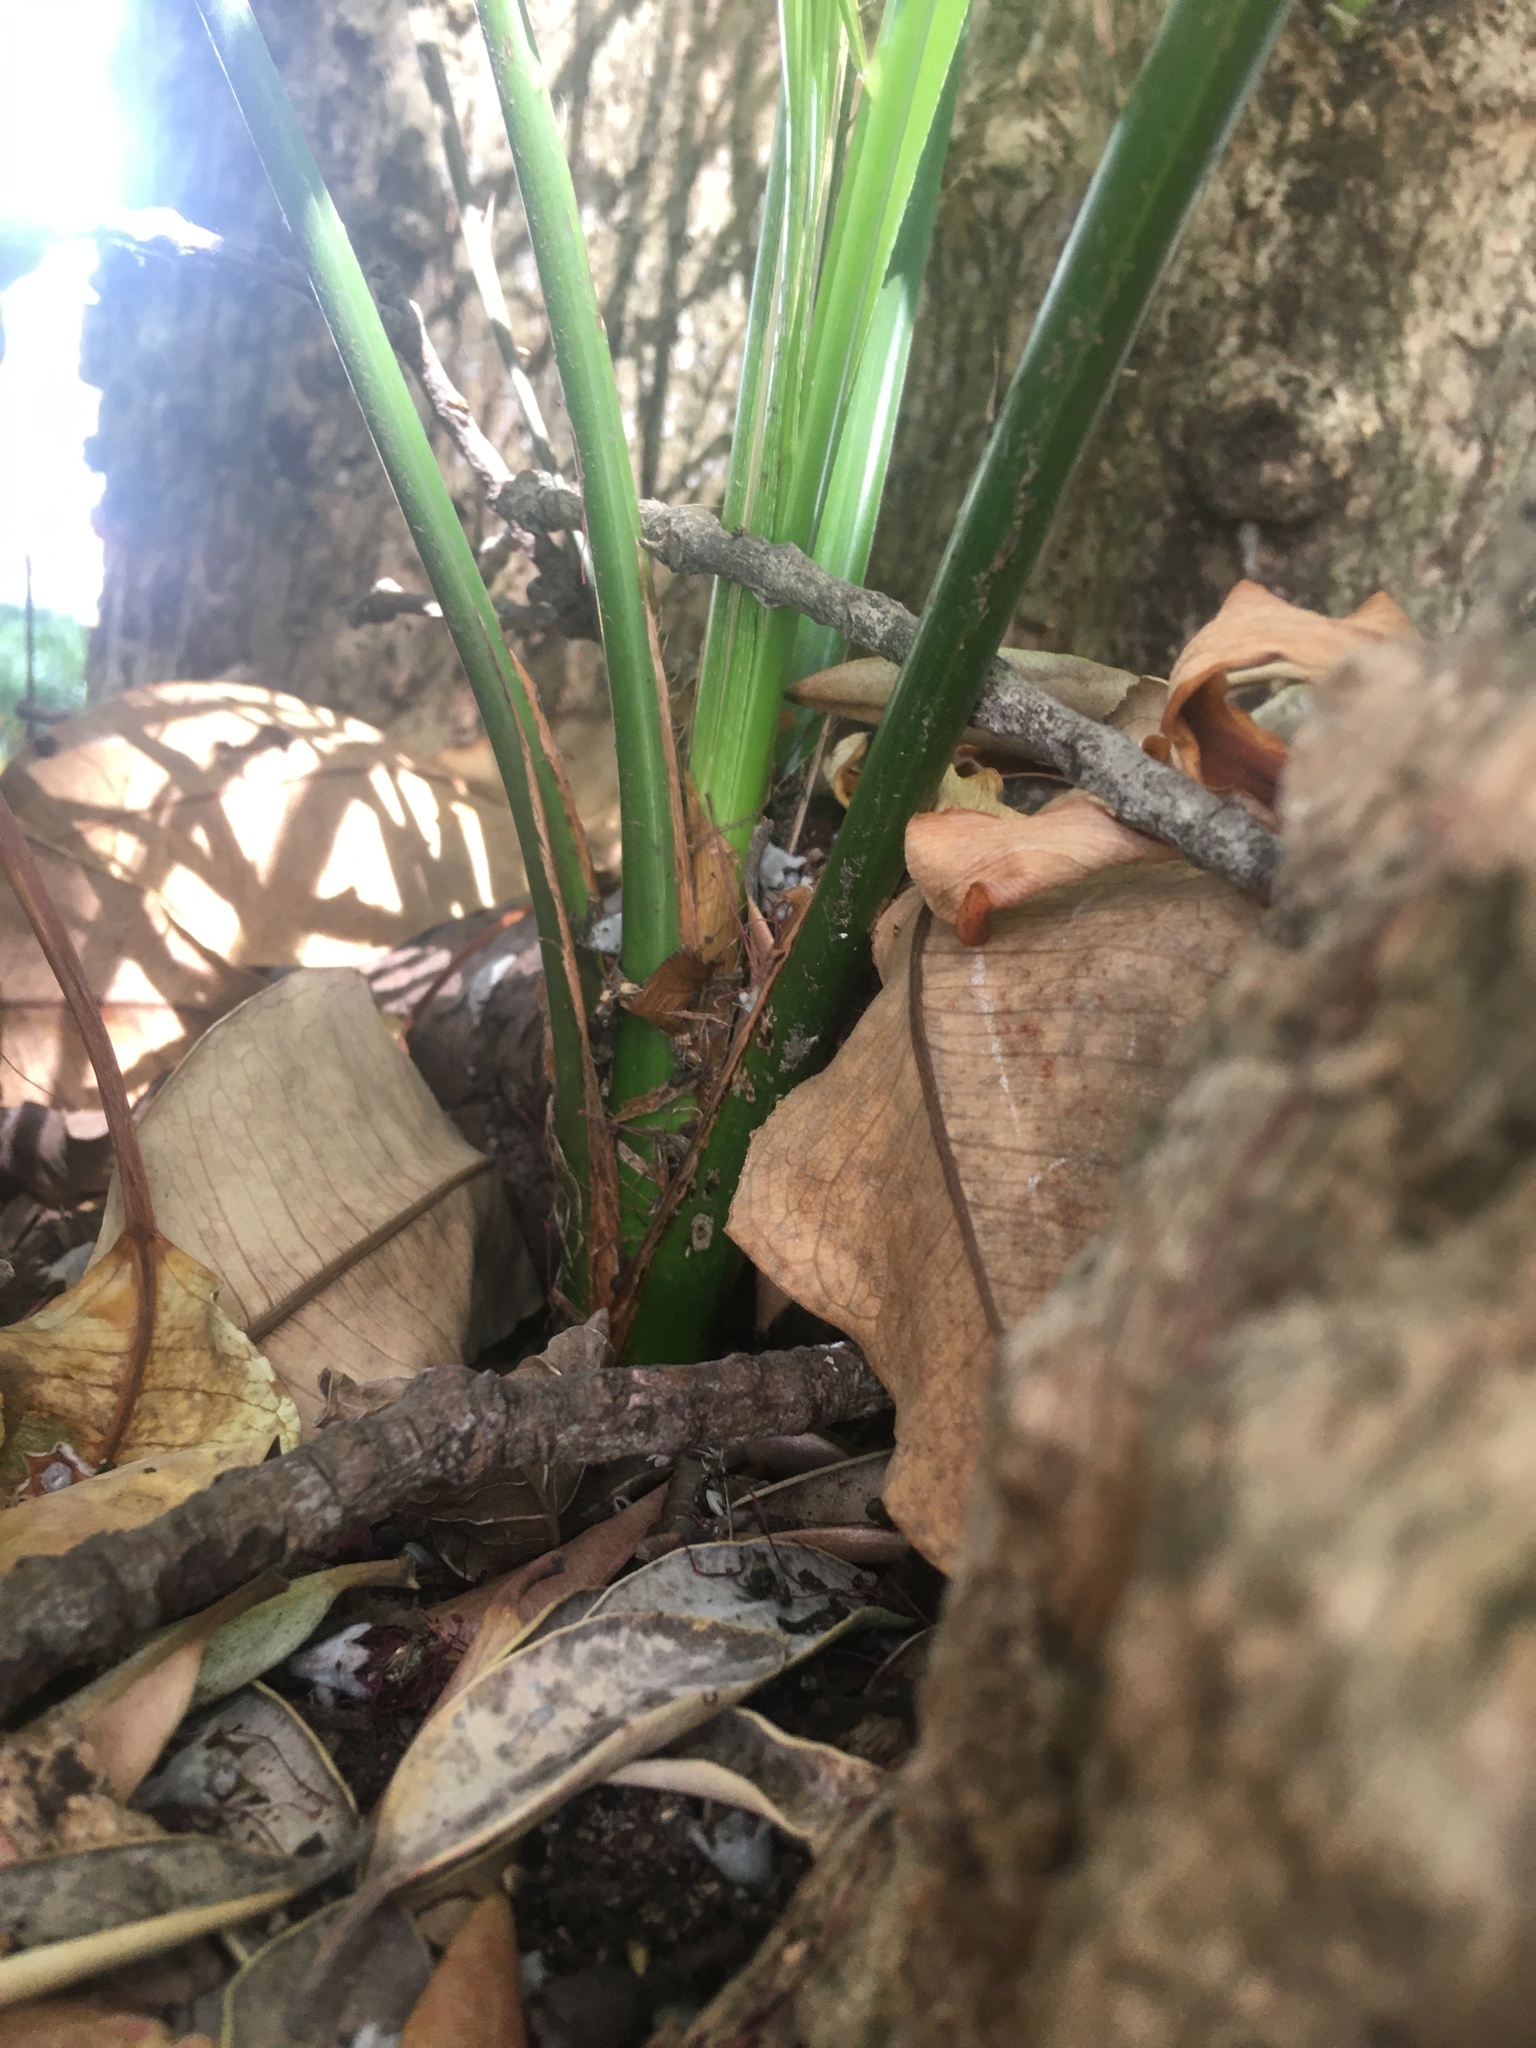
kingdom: Plantae
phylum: Tracheophyta
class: Liliopsida
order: Arecales
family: Arecaceae
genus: Phoenix
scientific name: Phoenix canariensis
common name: Canary island date palm
